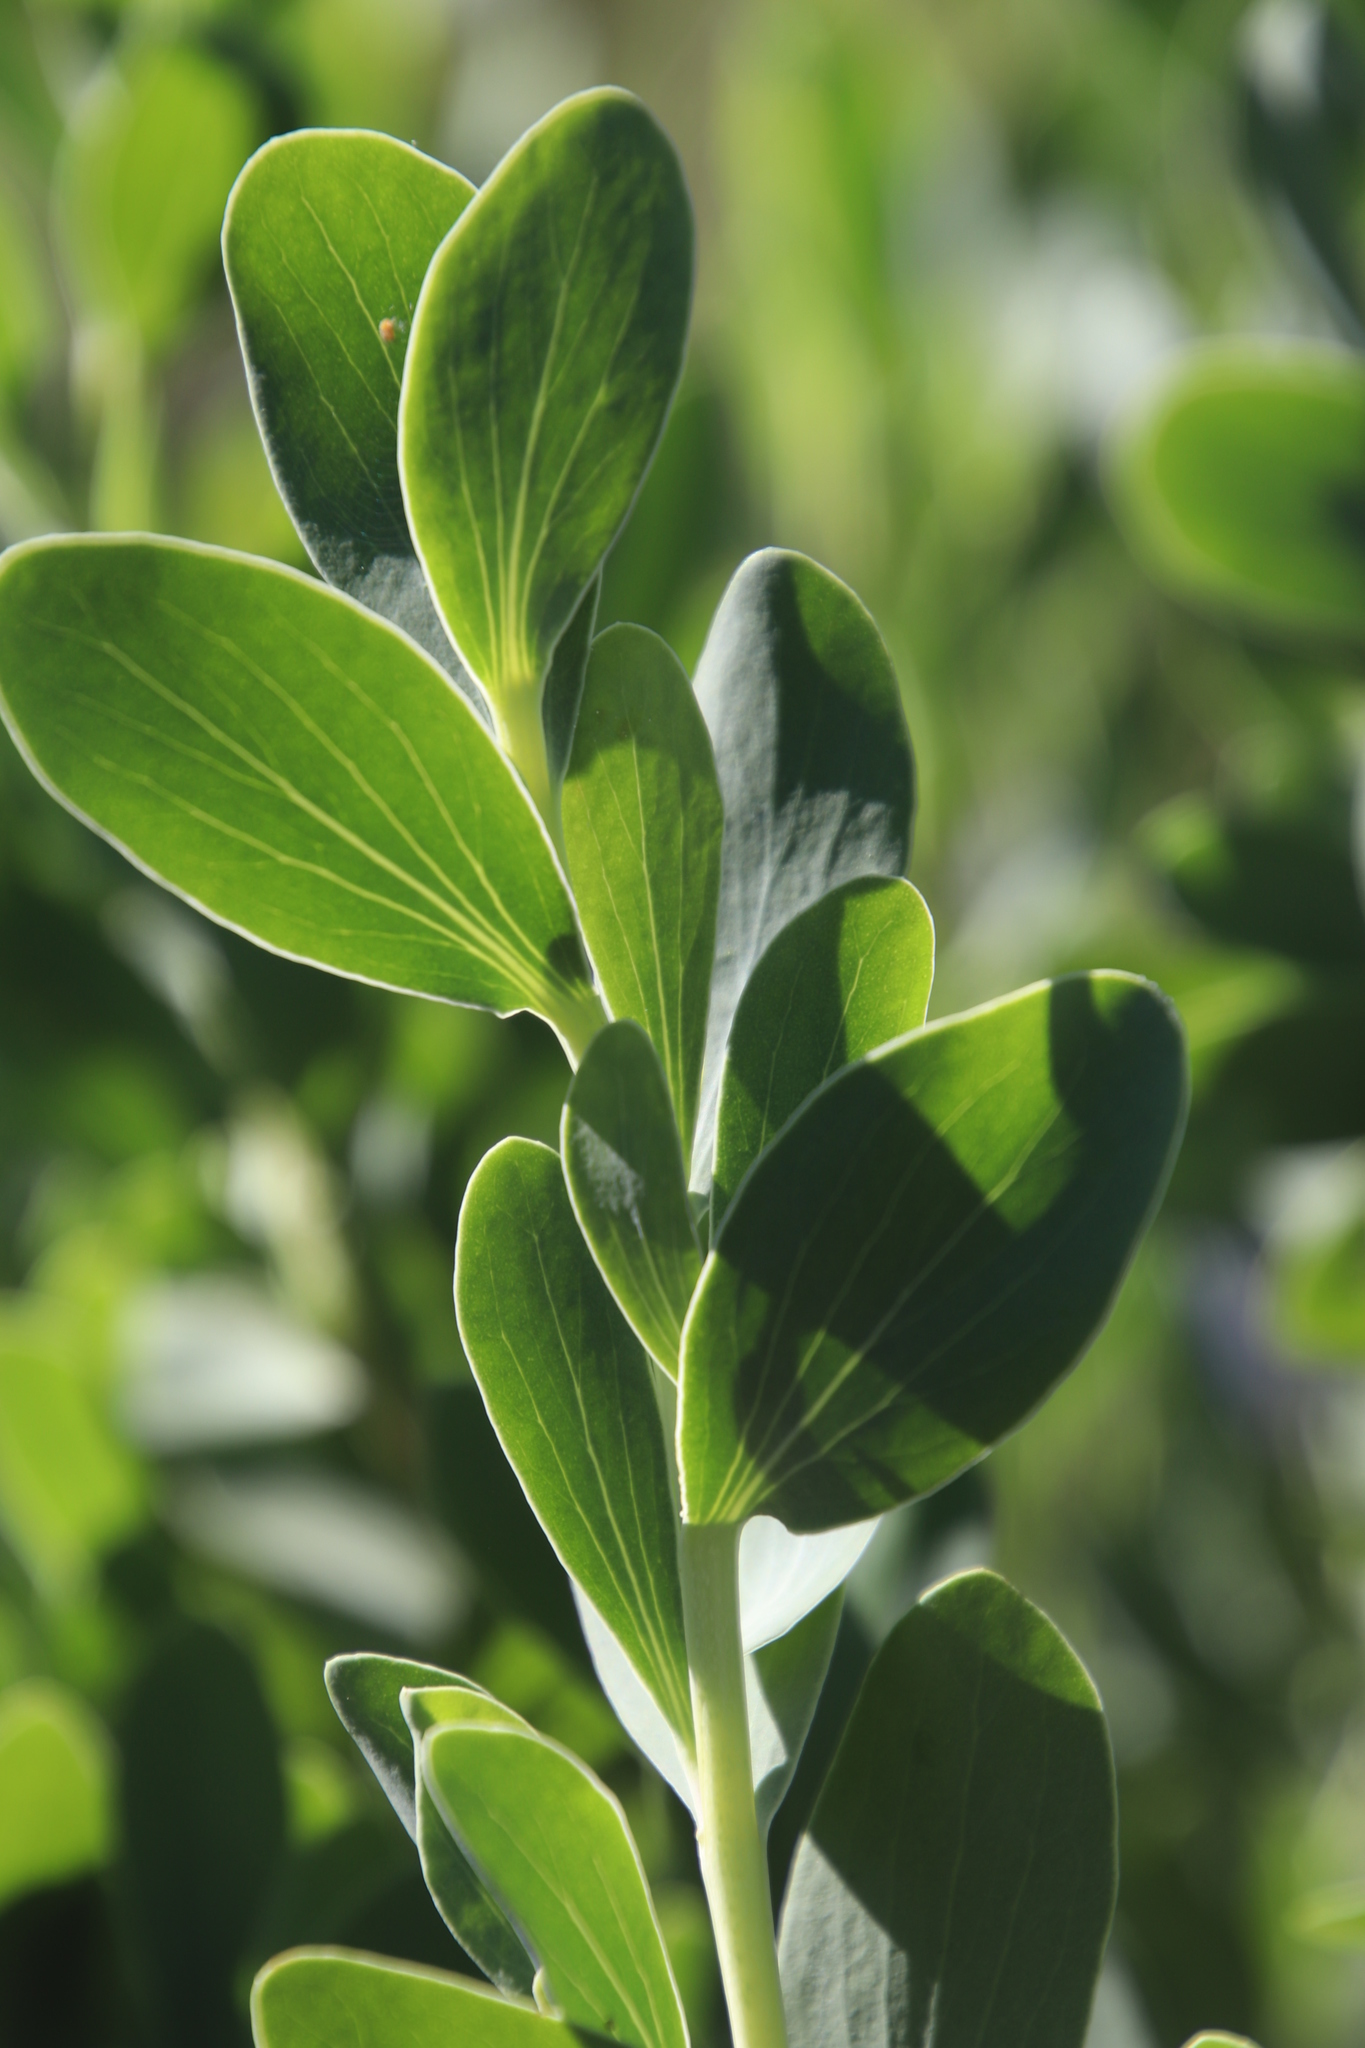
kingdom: Plantae
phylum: Tracheophyta
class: Magnoliopsida
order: Asterales
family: Asteraceae
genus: Lopholaena
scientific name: Lopholaena coriifolia
